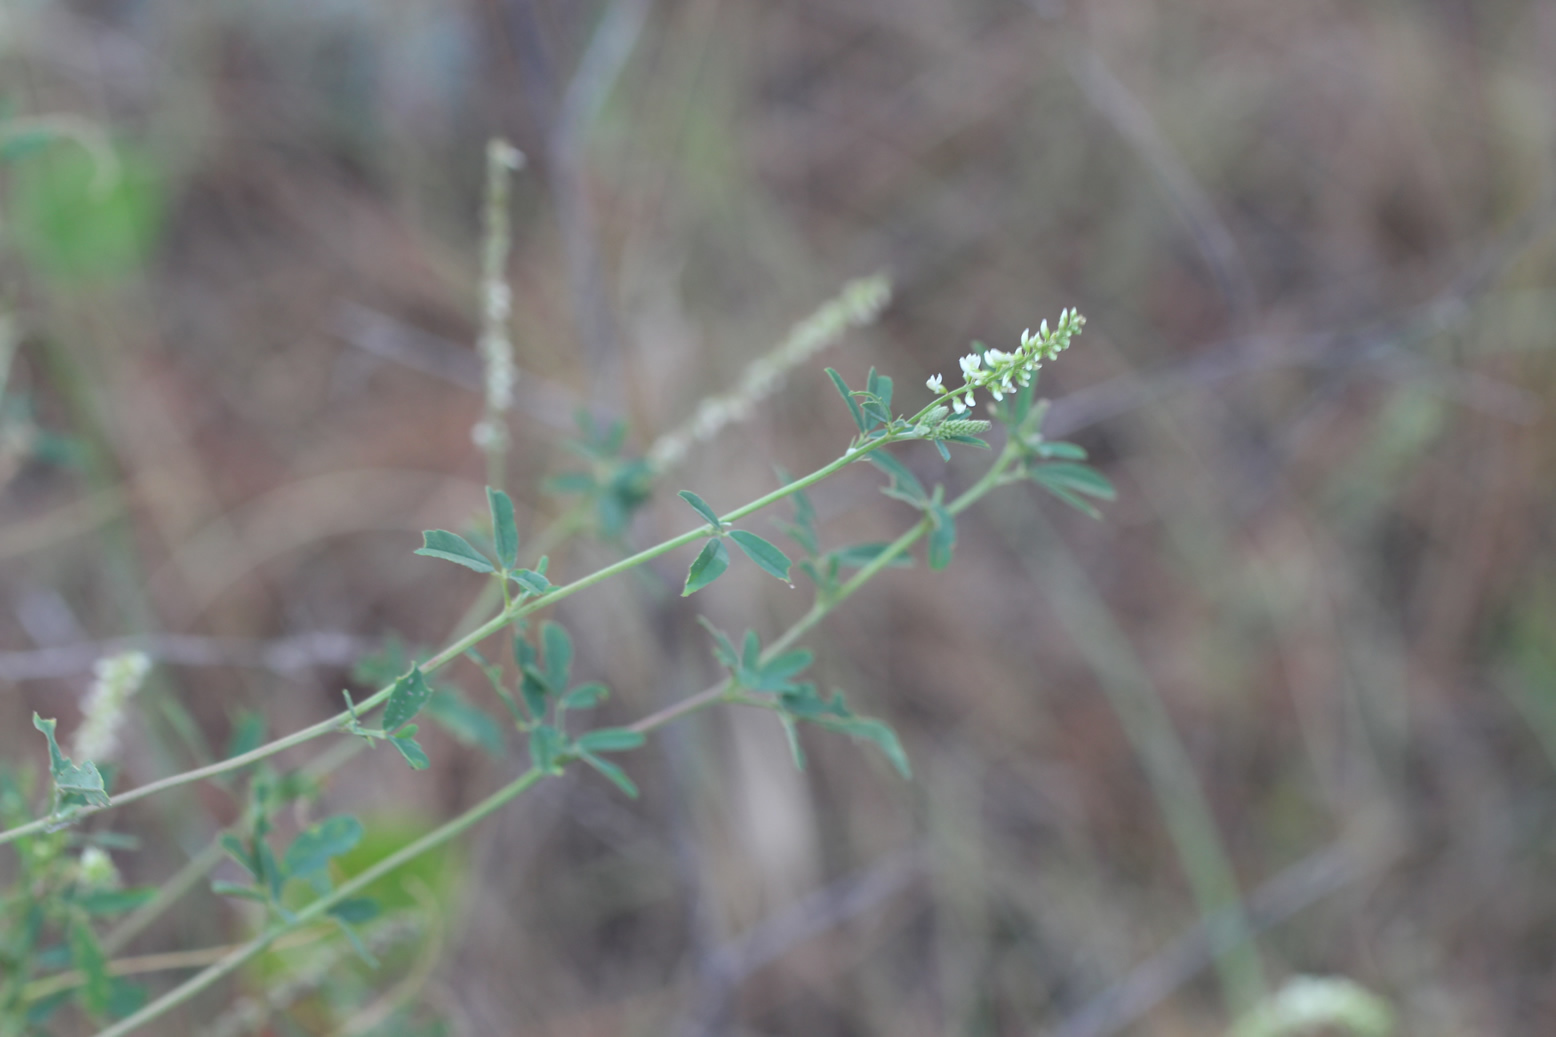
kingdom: Plantae
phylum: Tracheophyta
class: Magnoliopsida
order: Fabales
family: Fabaceae
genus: Melilotus
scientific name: Melilotus albus
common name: White melilot
